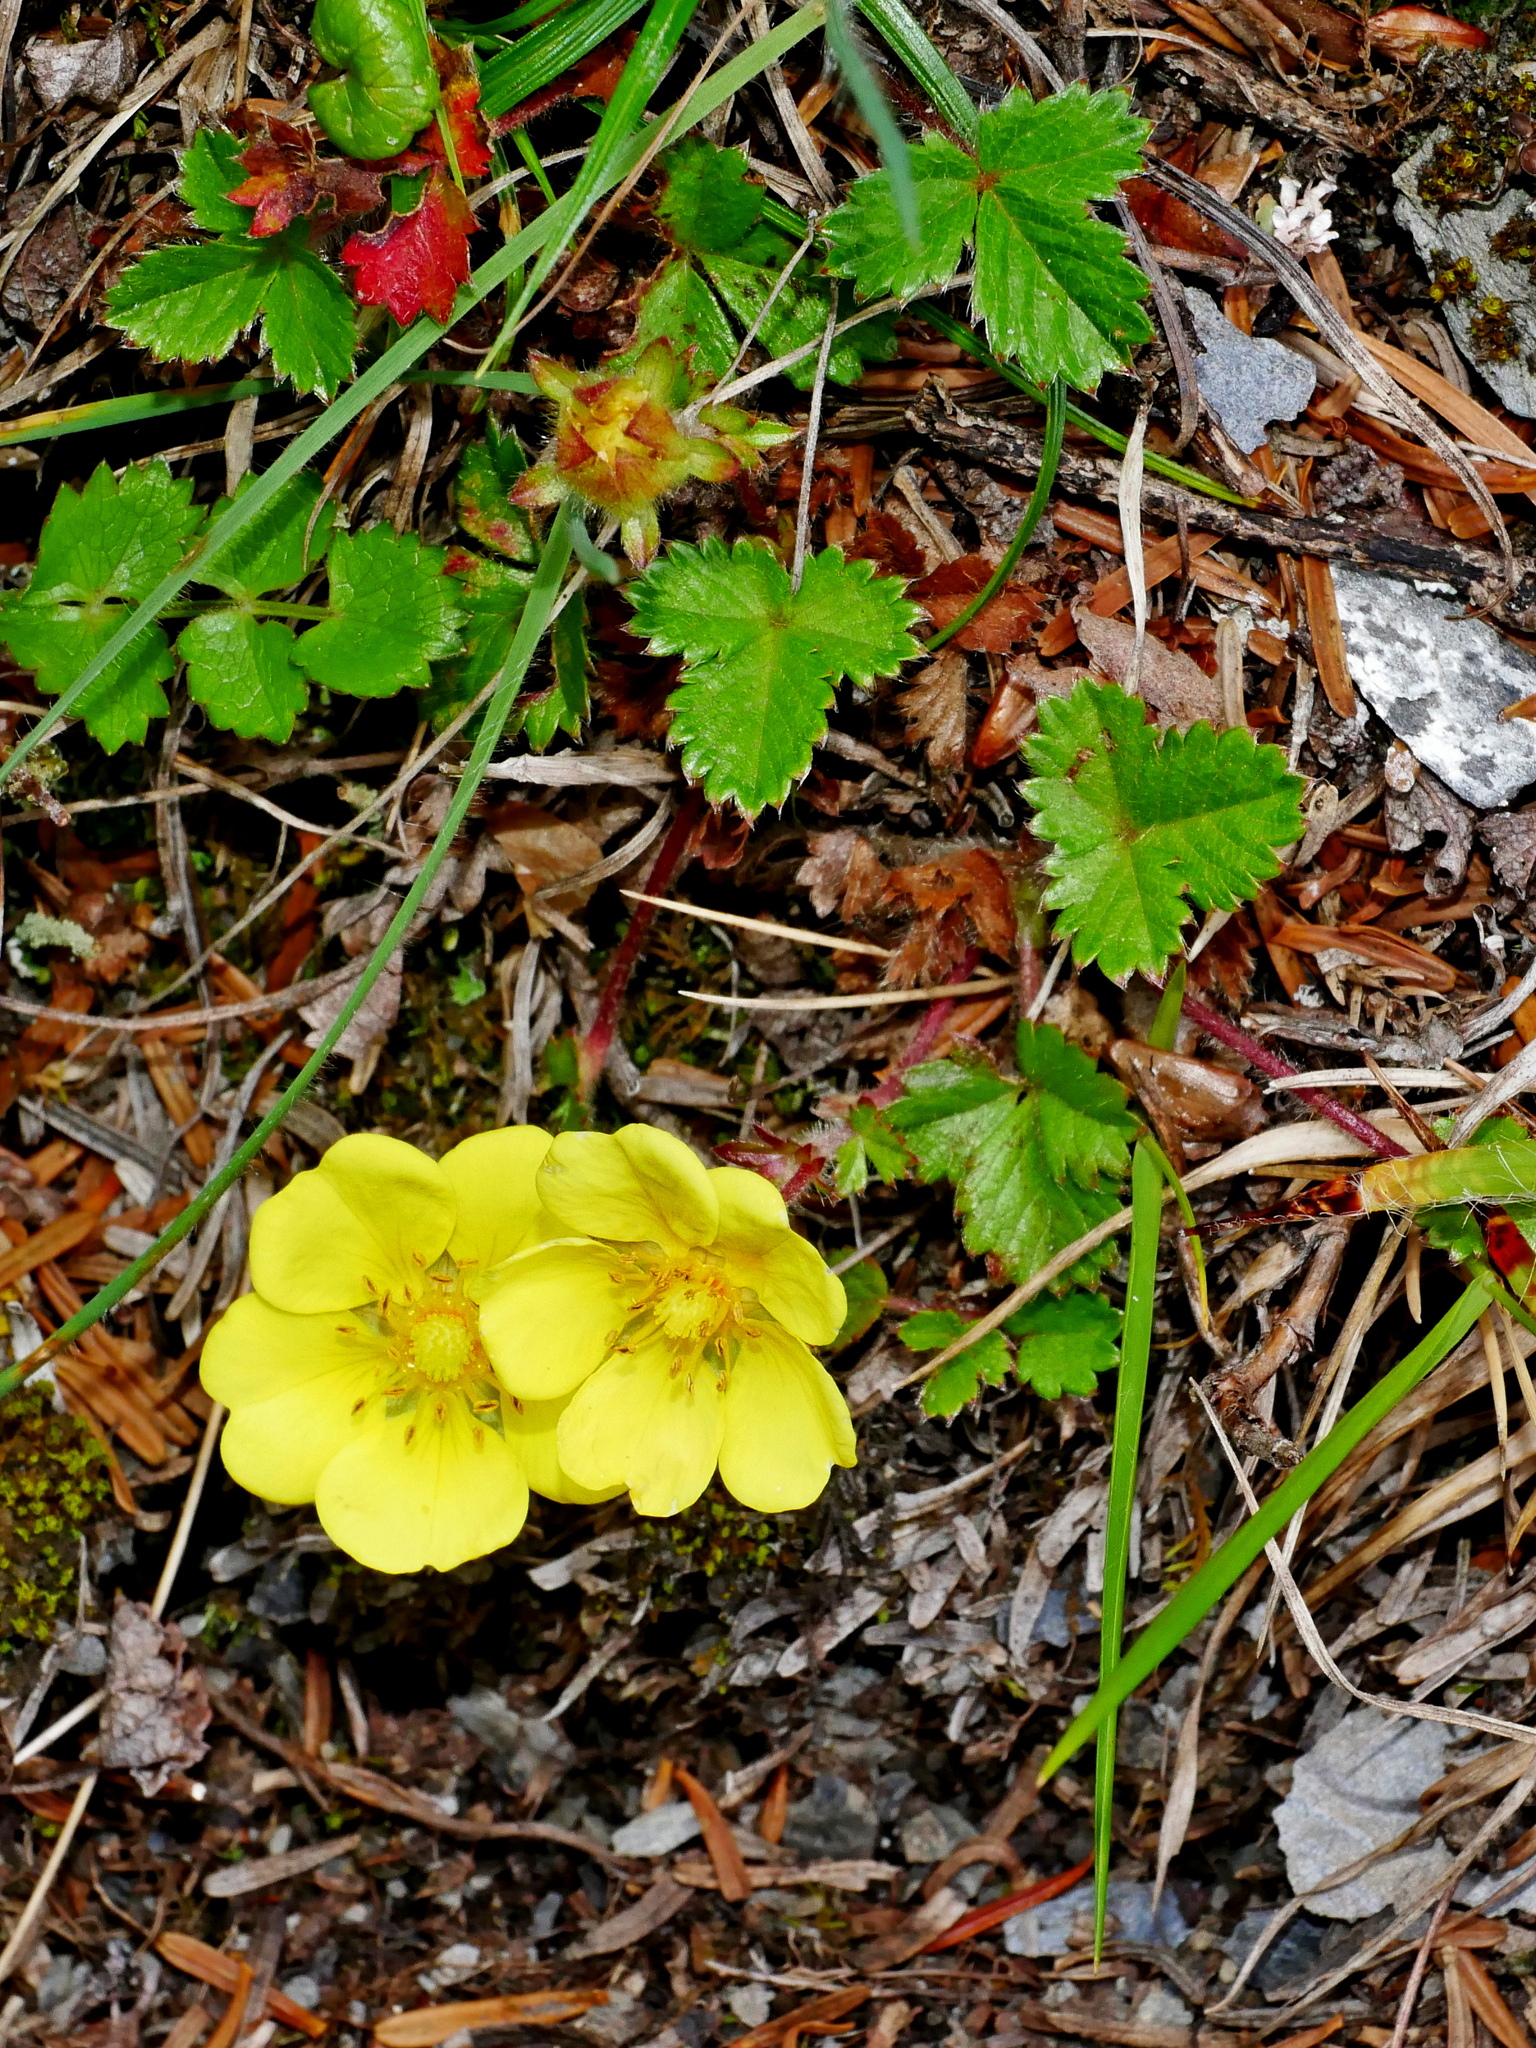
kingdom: Plantae
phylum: Tracheophyta
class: Magnoliopsida
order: Rosales
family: Rosaceae
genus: Potentilla
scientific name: Potentilla matsumurae
